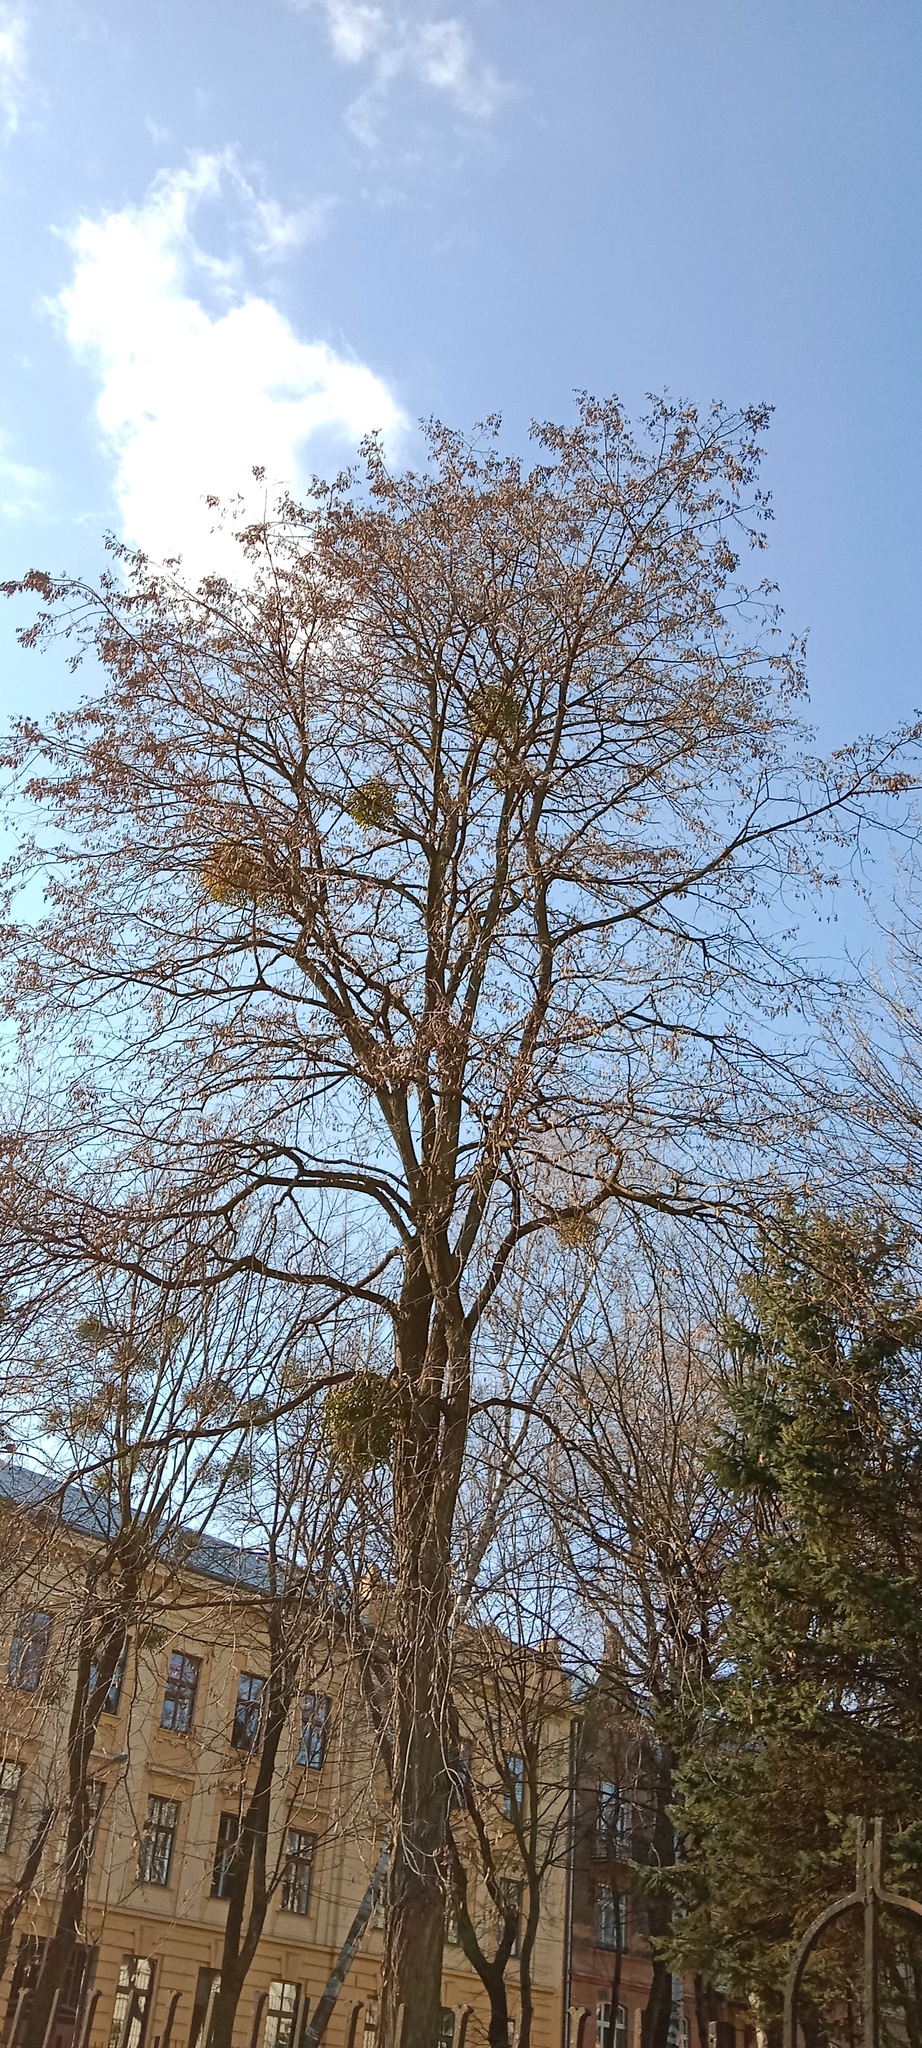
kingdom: Plantae
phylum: Tracheophyta
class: Magnoliopsida
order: Santalales
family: Viscaceae
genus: Viscum
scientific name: Viscum album
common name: Mistletoe
